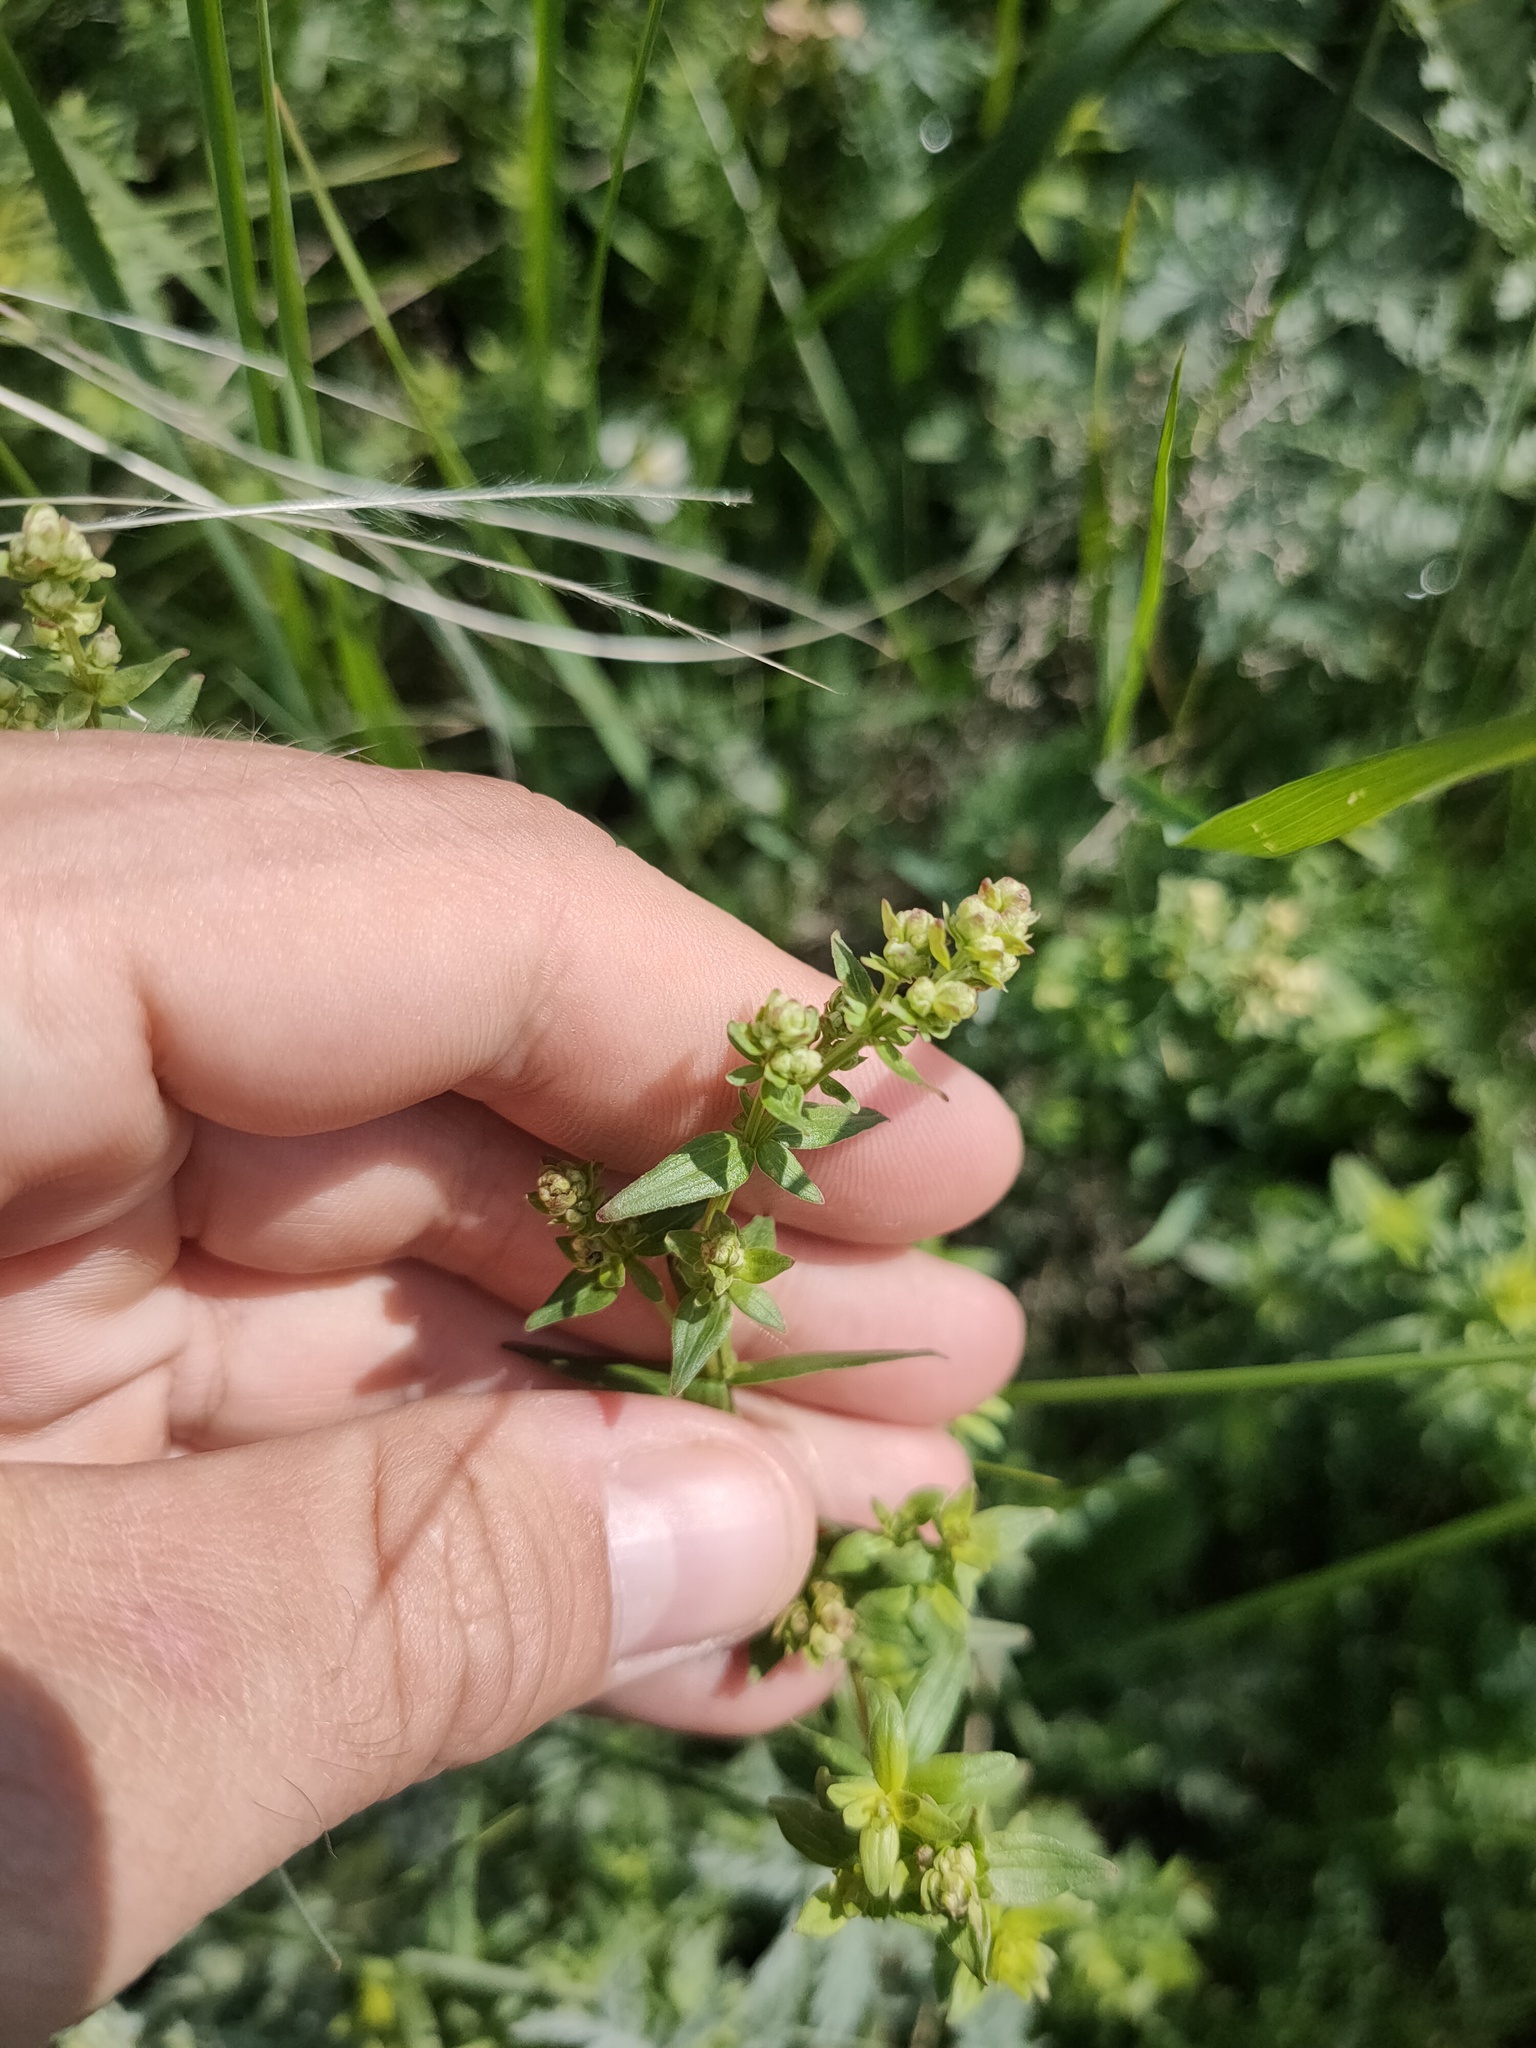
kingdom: Plantae
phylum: Tracheophyta
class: Magnoliopsida
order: Gentianales
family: Rubiaceae
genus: Galium
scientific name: Galium boreale
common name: Northern bedstraw
